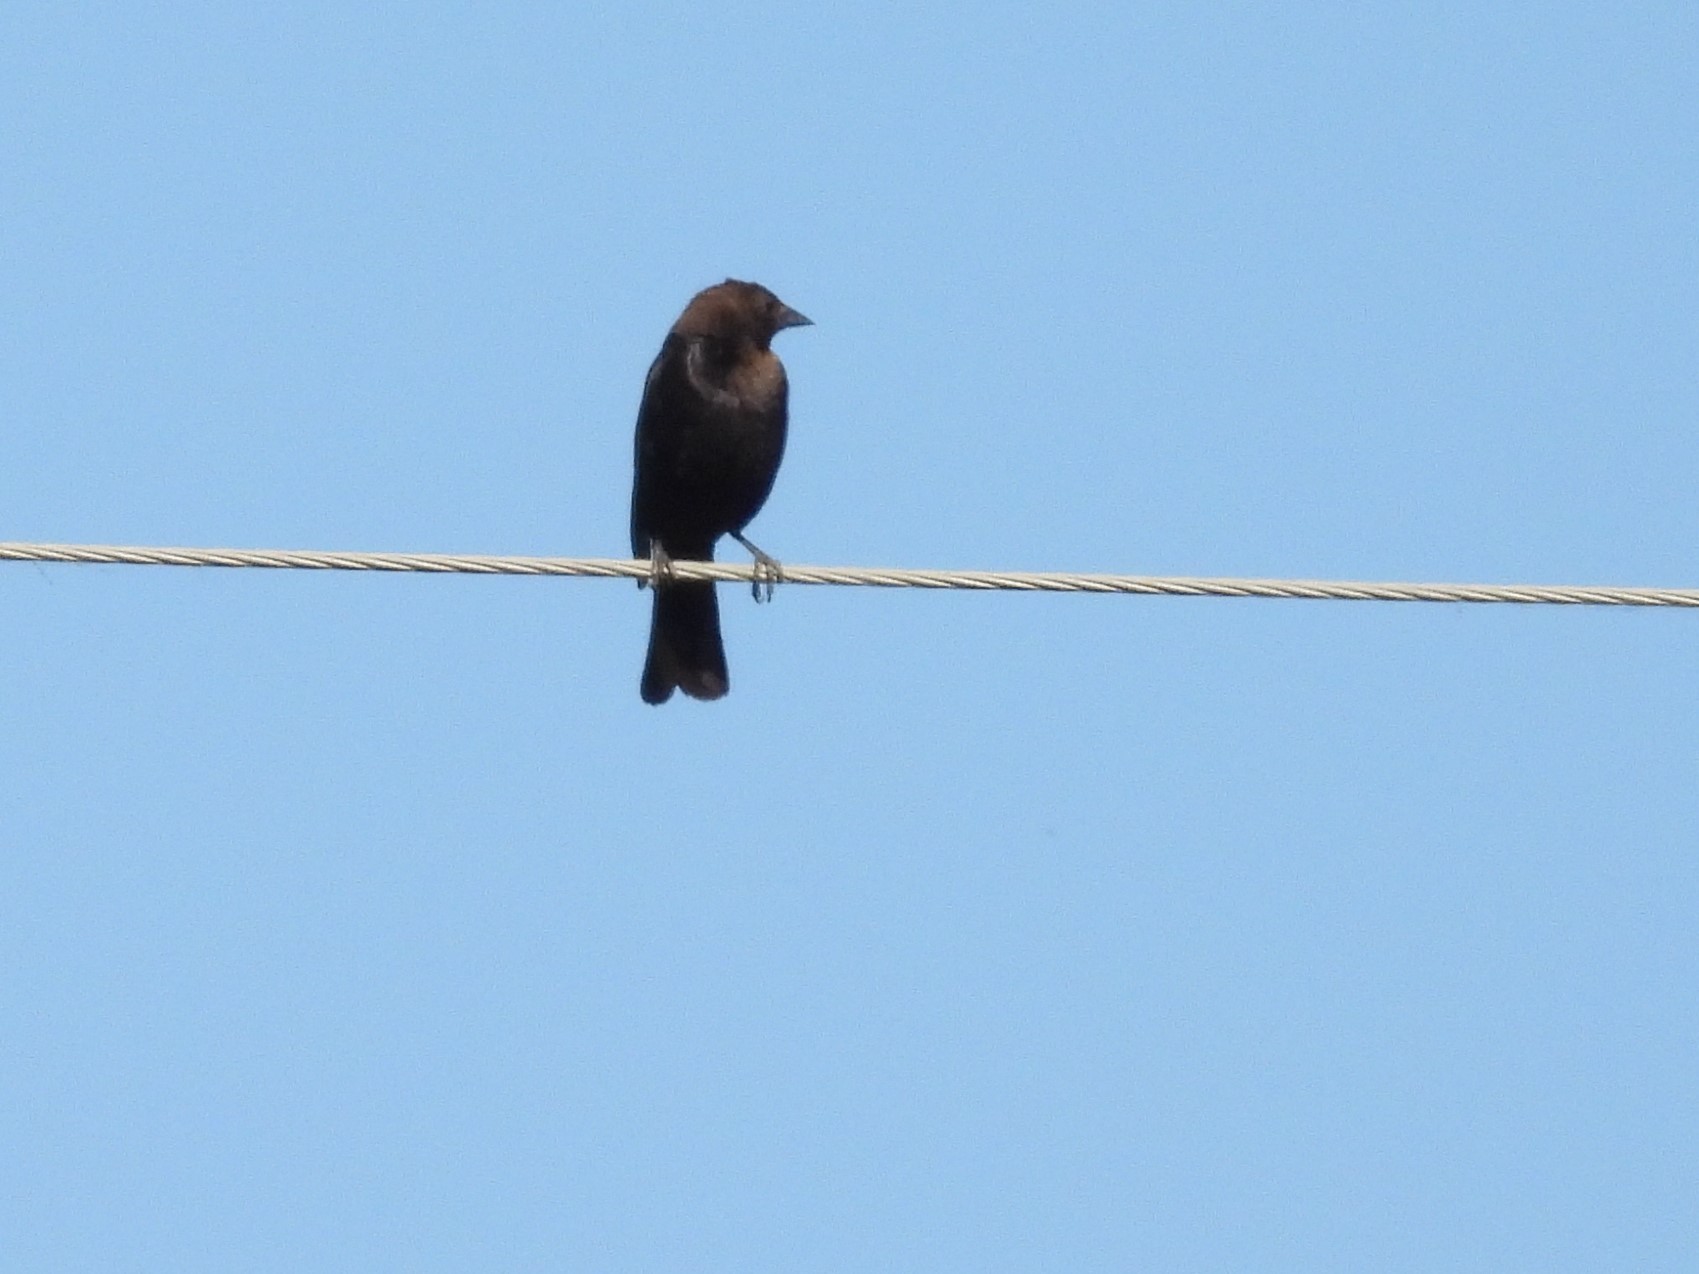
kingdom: Animalia
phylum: Chordata
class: Aves
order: Passeriformes
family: Icteridae
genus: Molothrus
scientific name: Molothrus ater
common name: Brown-headed cowbird
